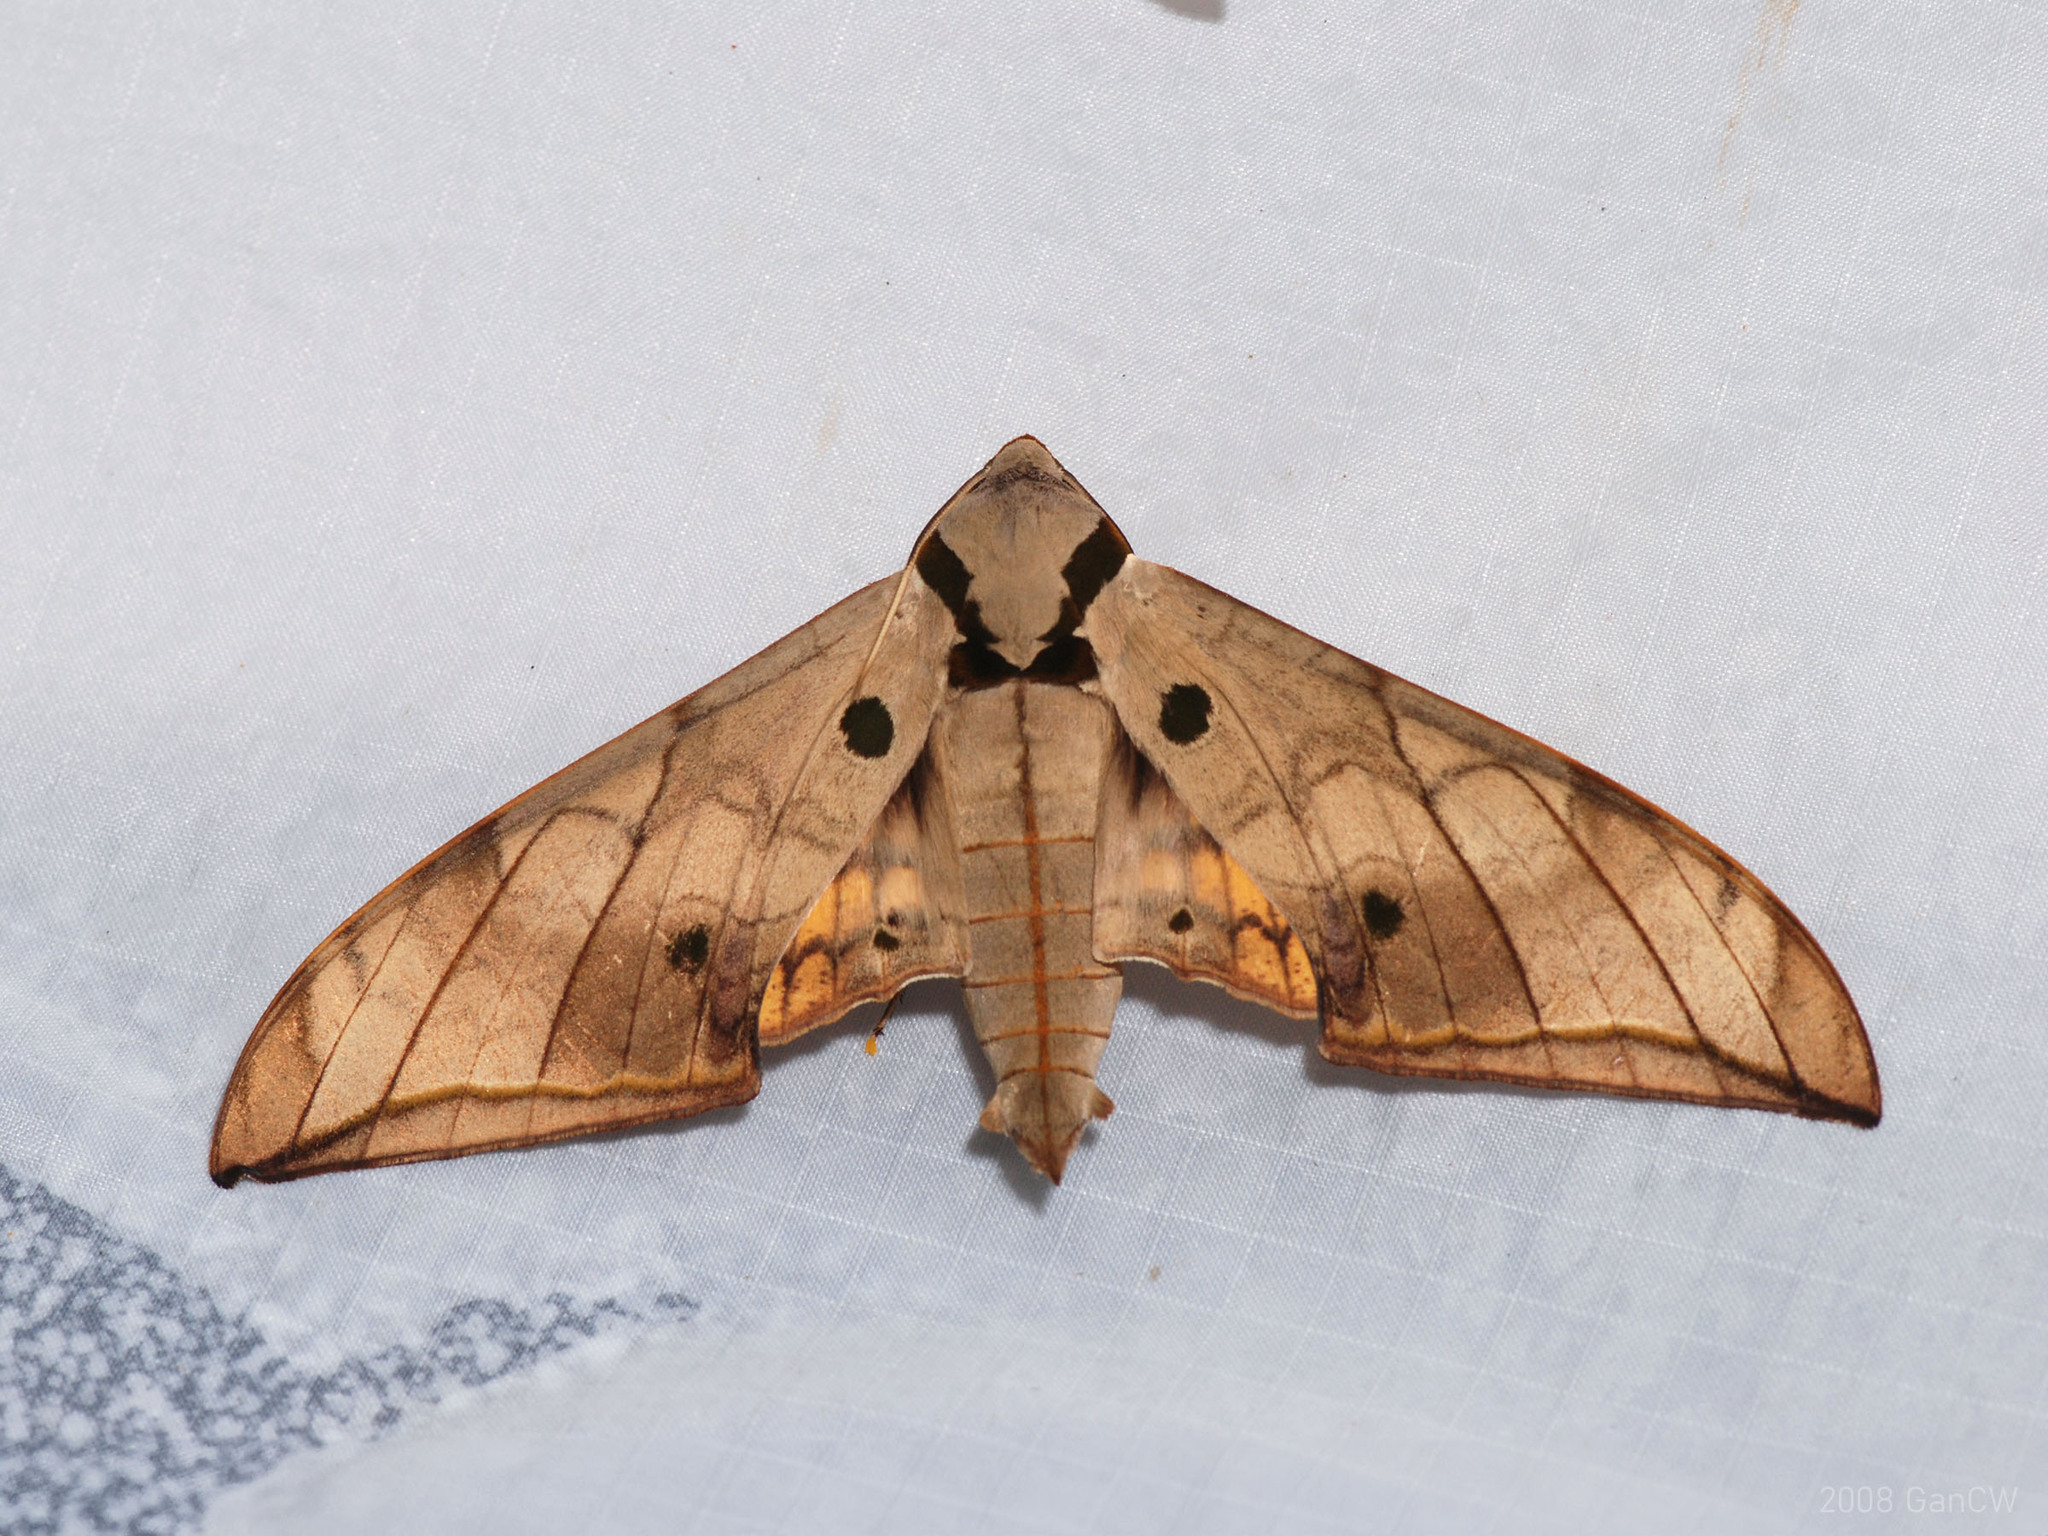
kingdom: Animalia
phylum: Arthropoda
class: Insecta
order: Lepidoptera
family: Sphingidae
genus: Ambulyx
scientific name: Ambulyx substrigilis
